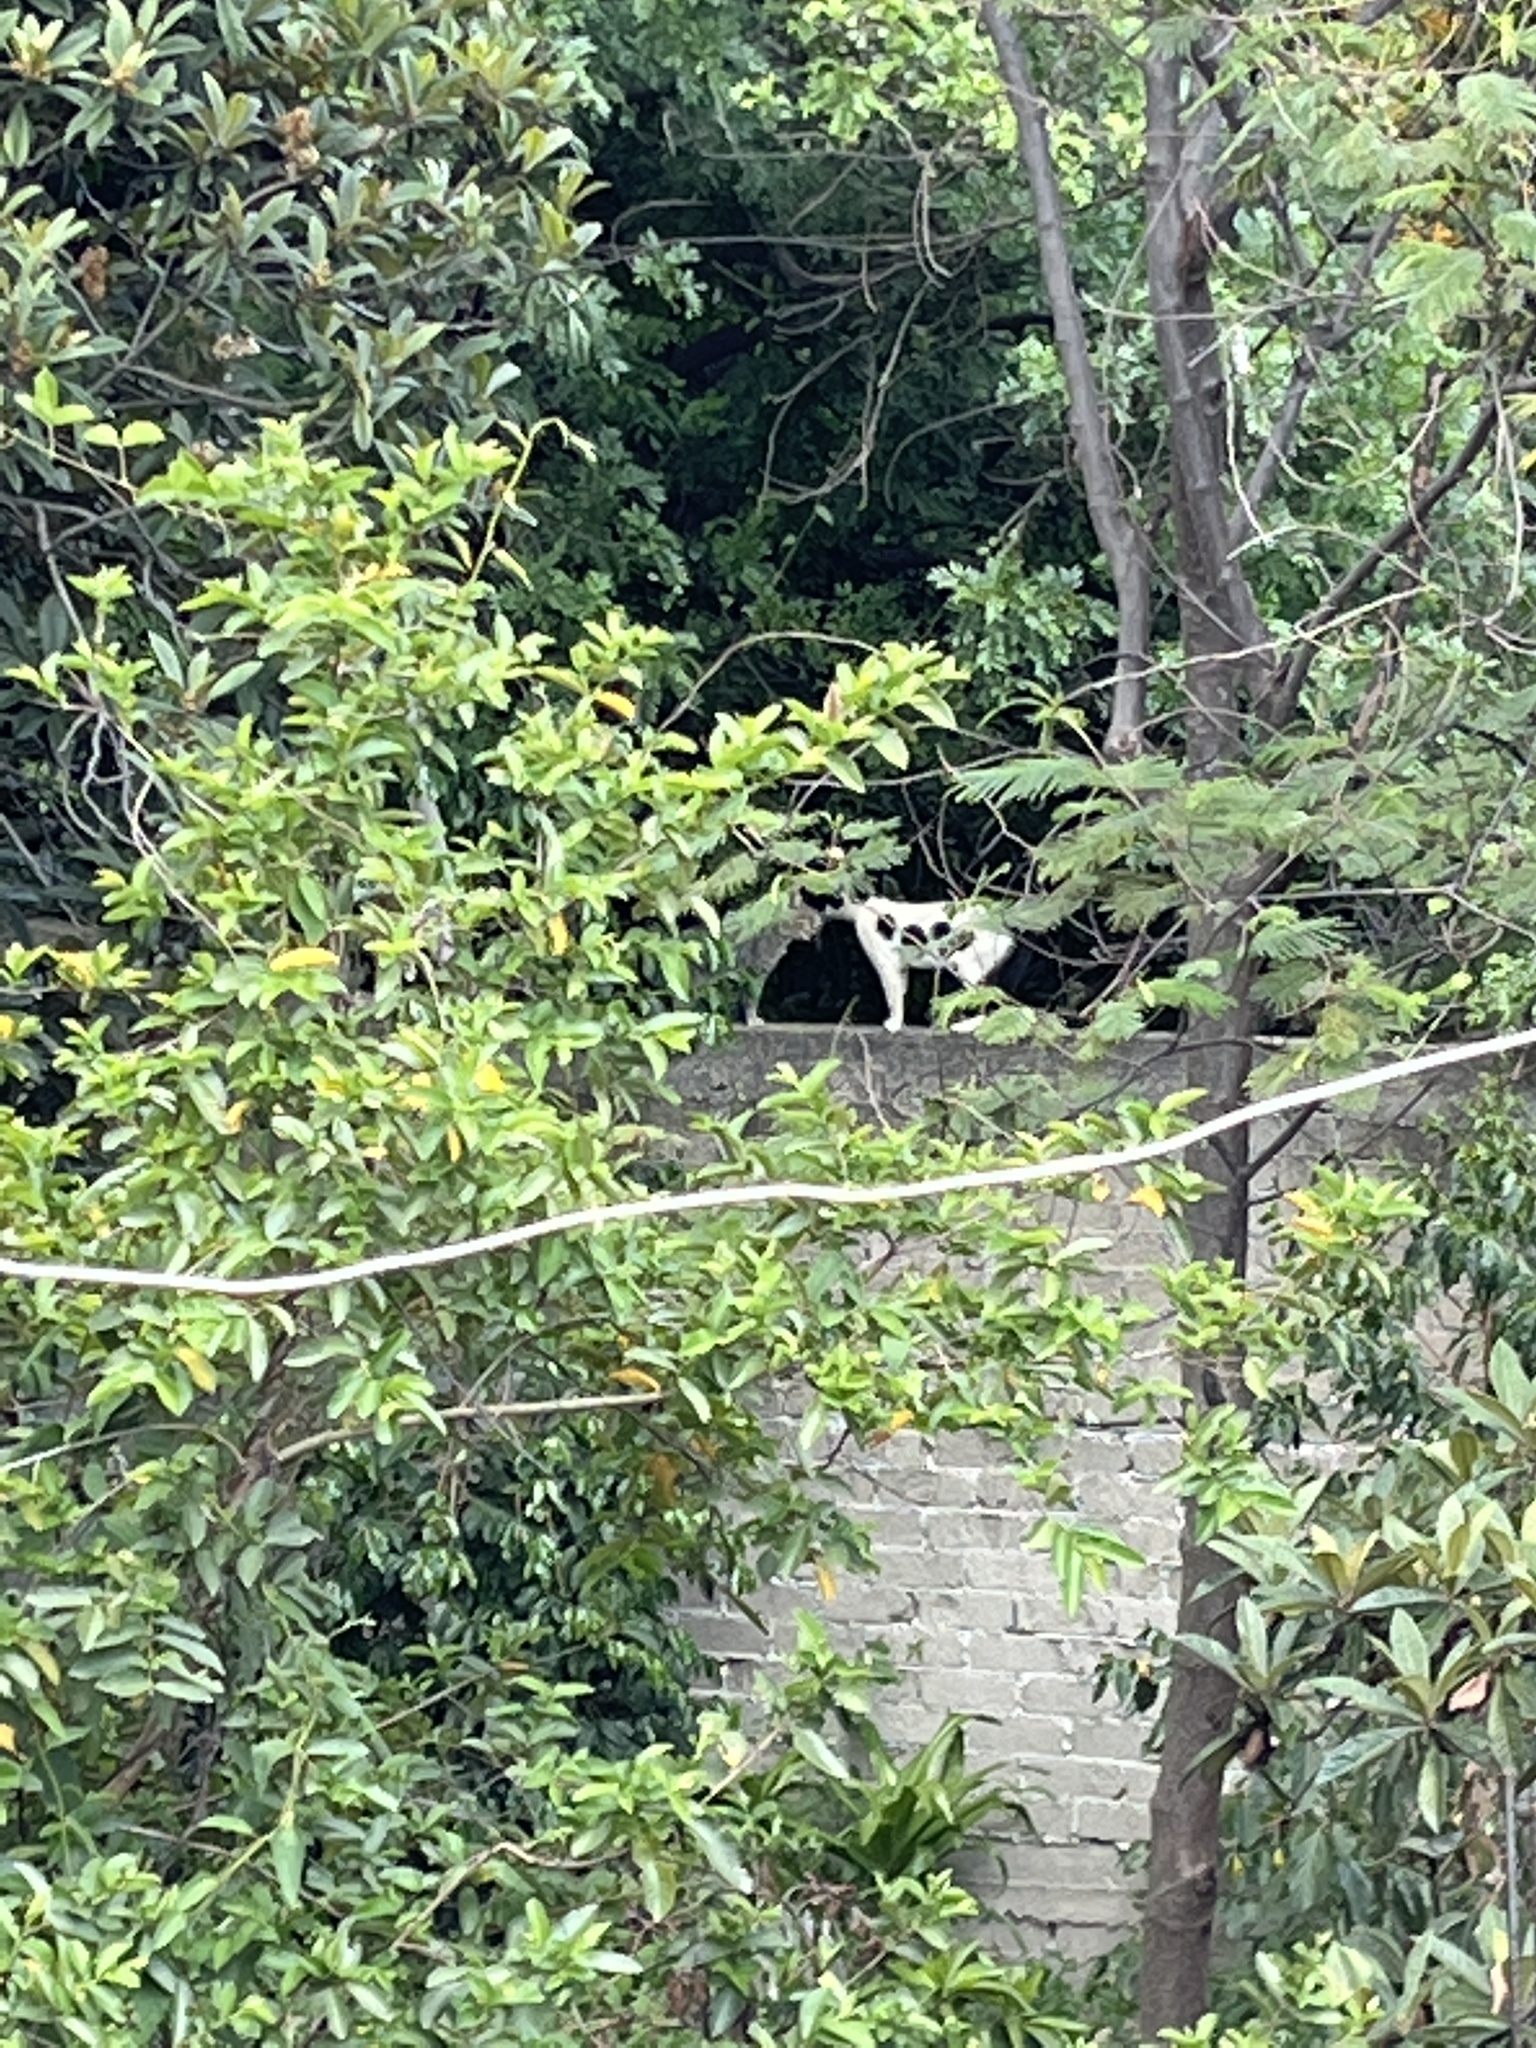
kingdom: Animalia
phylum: Chordata
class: Mammalia
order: Carnivora
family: Felidae
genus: Felis
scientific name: Felis catus
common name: Domestic cat
